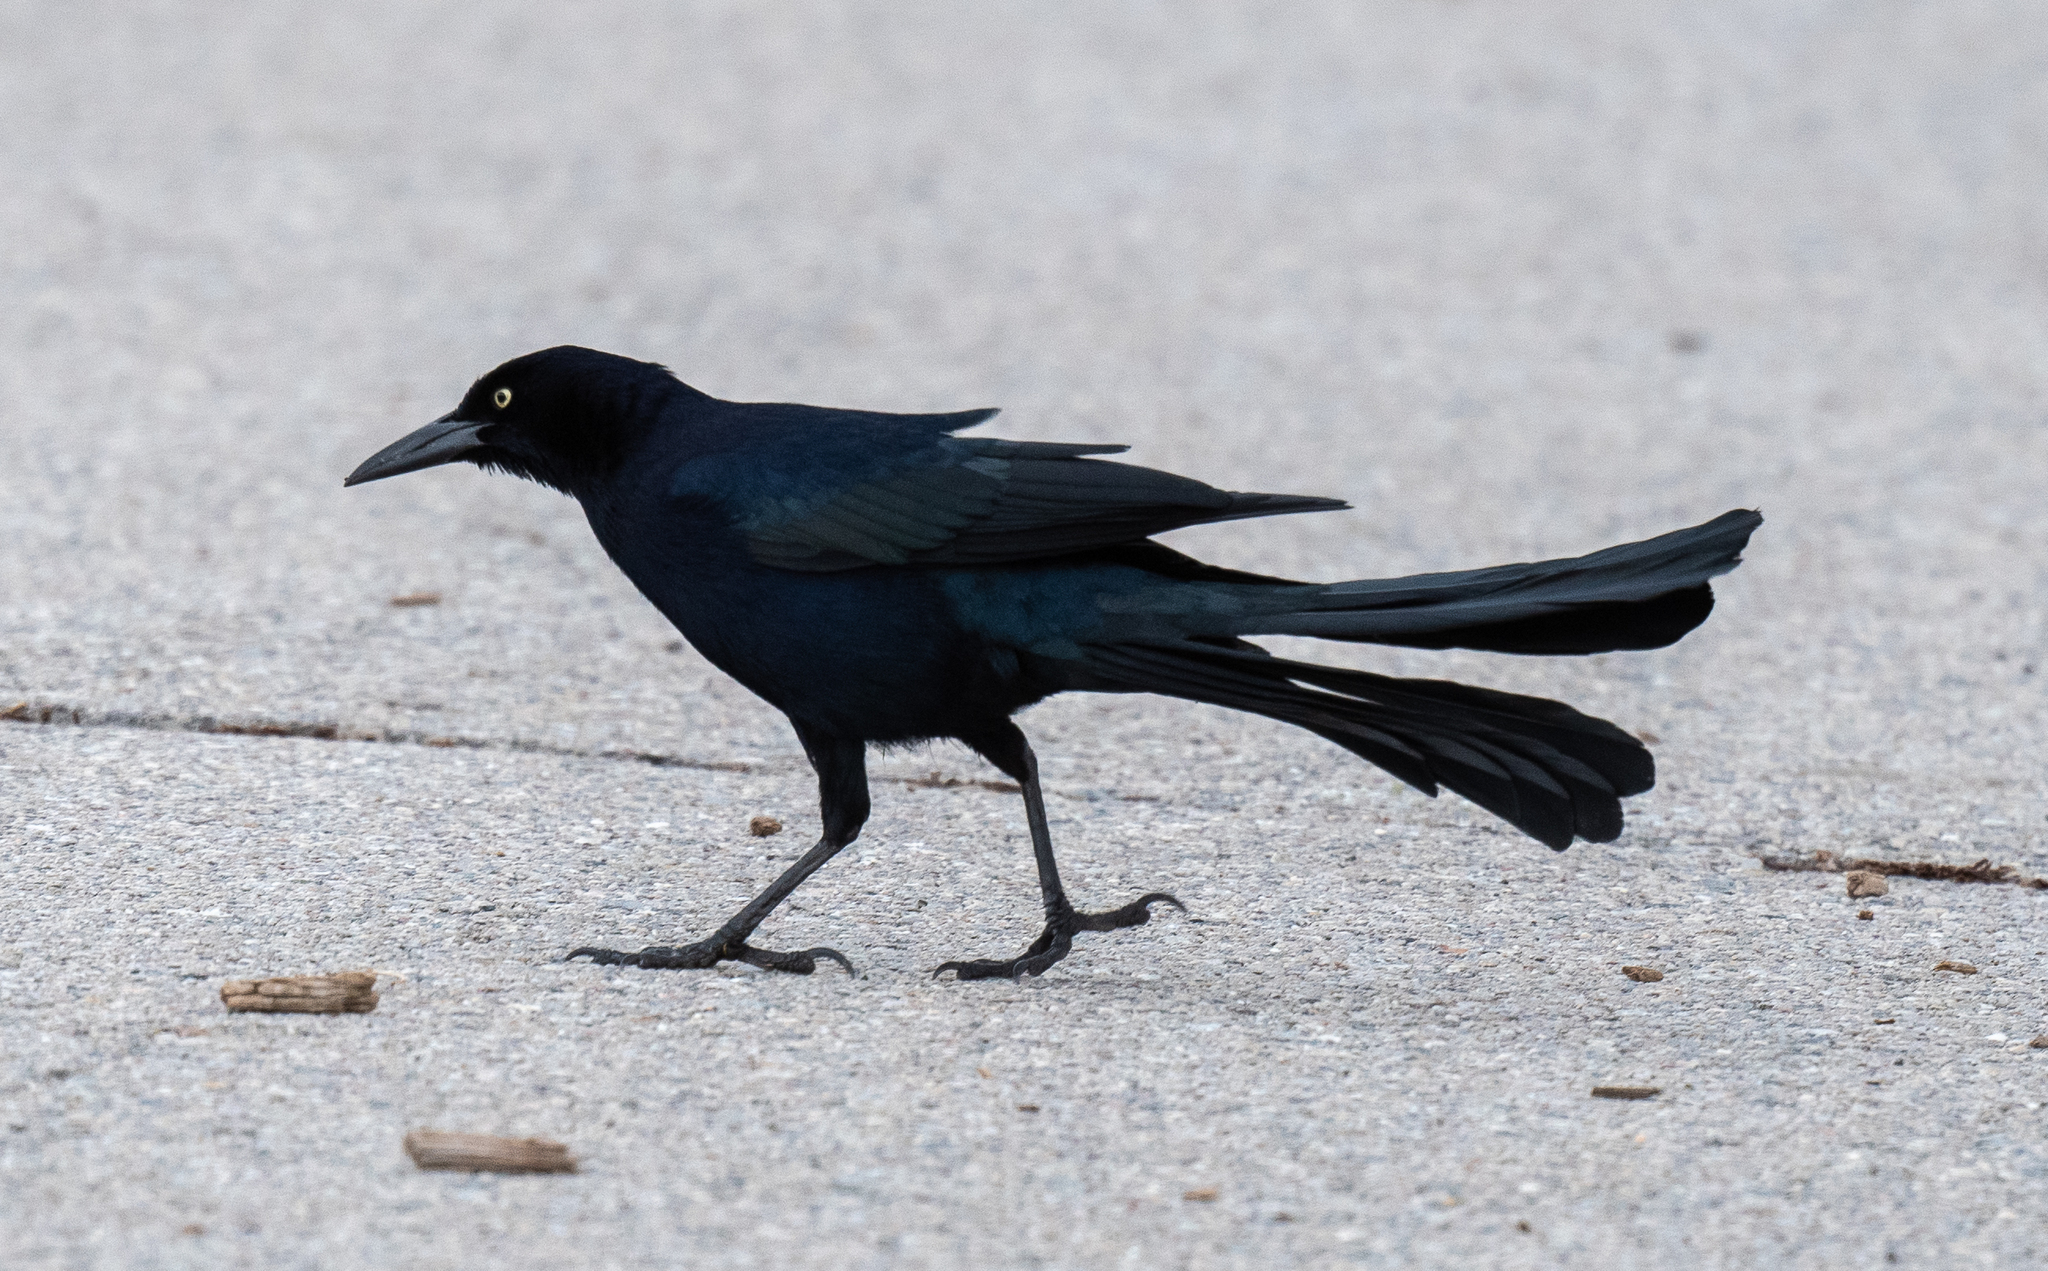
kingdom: Animalia
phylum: Chordata
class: Aves
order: Passeriformes
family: Icteridae
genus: Quiscalus
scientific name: Quiscalus mexicanus
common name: Great-tailed grackle
